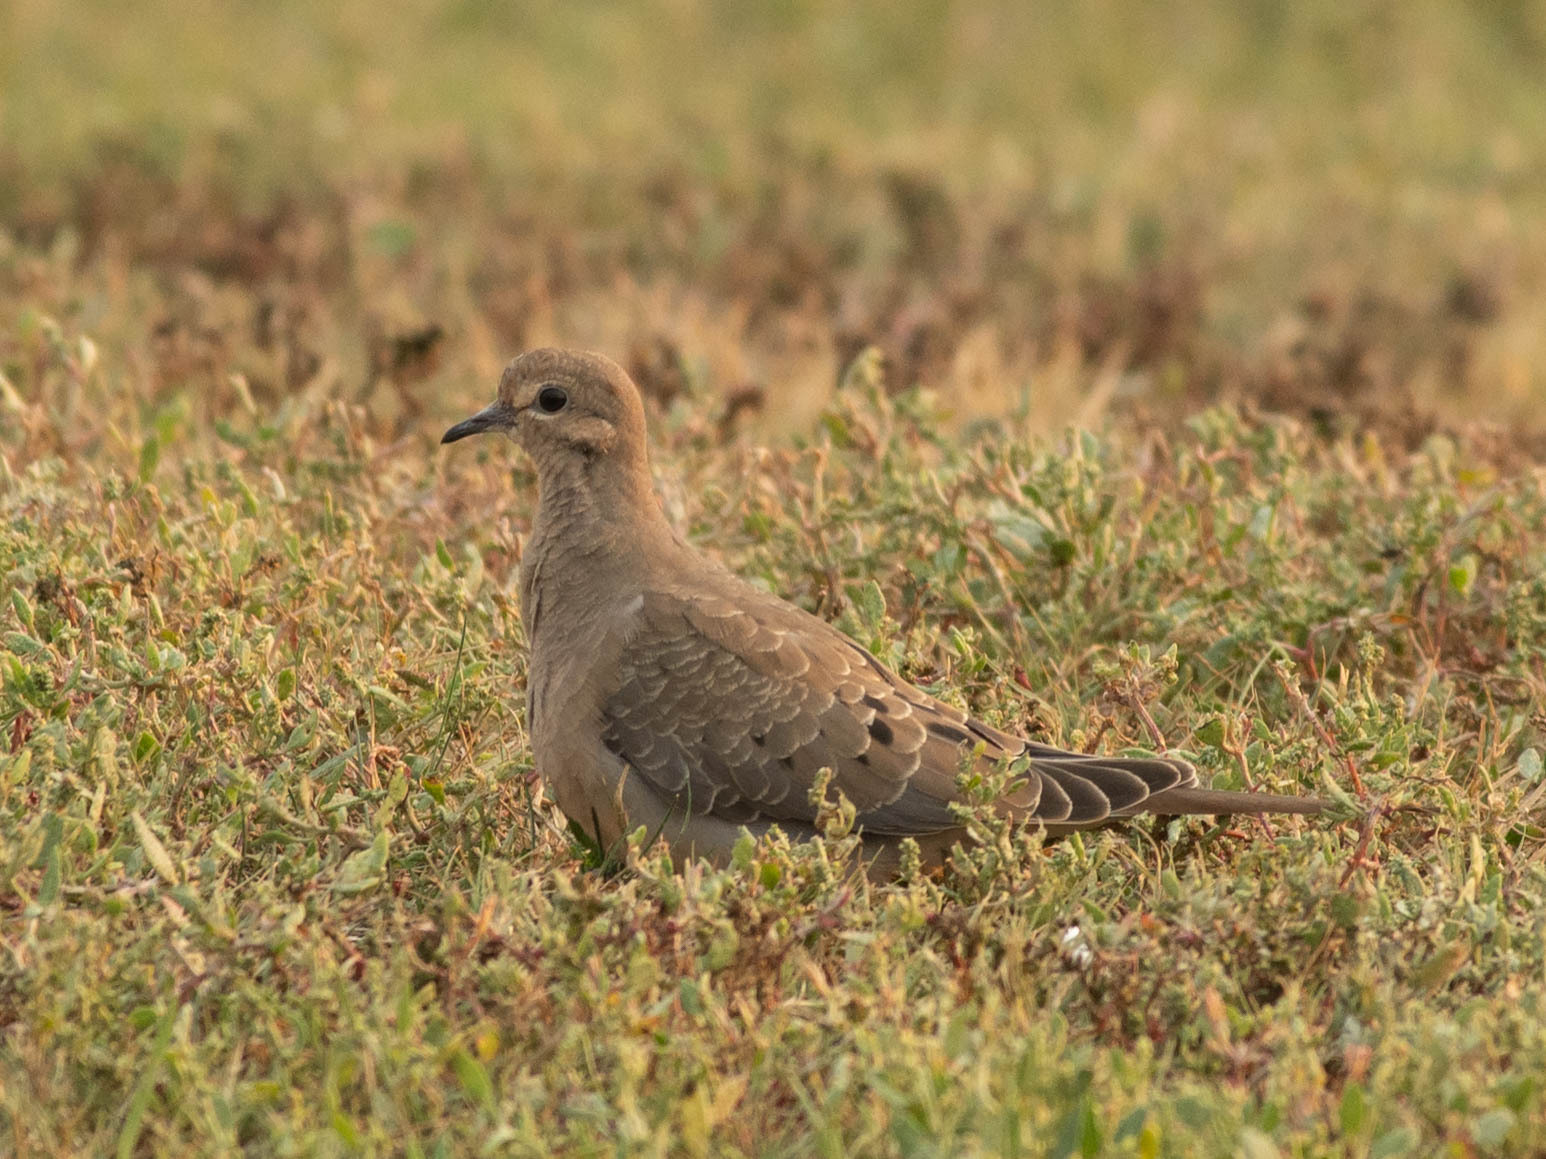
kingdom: Animalia
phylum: Chordata
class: Aves
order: Columbiformes
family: Columbidae
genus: Zenaida
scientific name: Zenaida macroura
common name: Mourning dove
